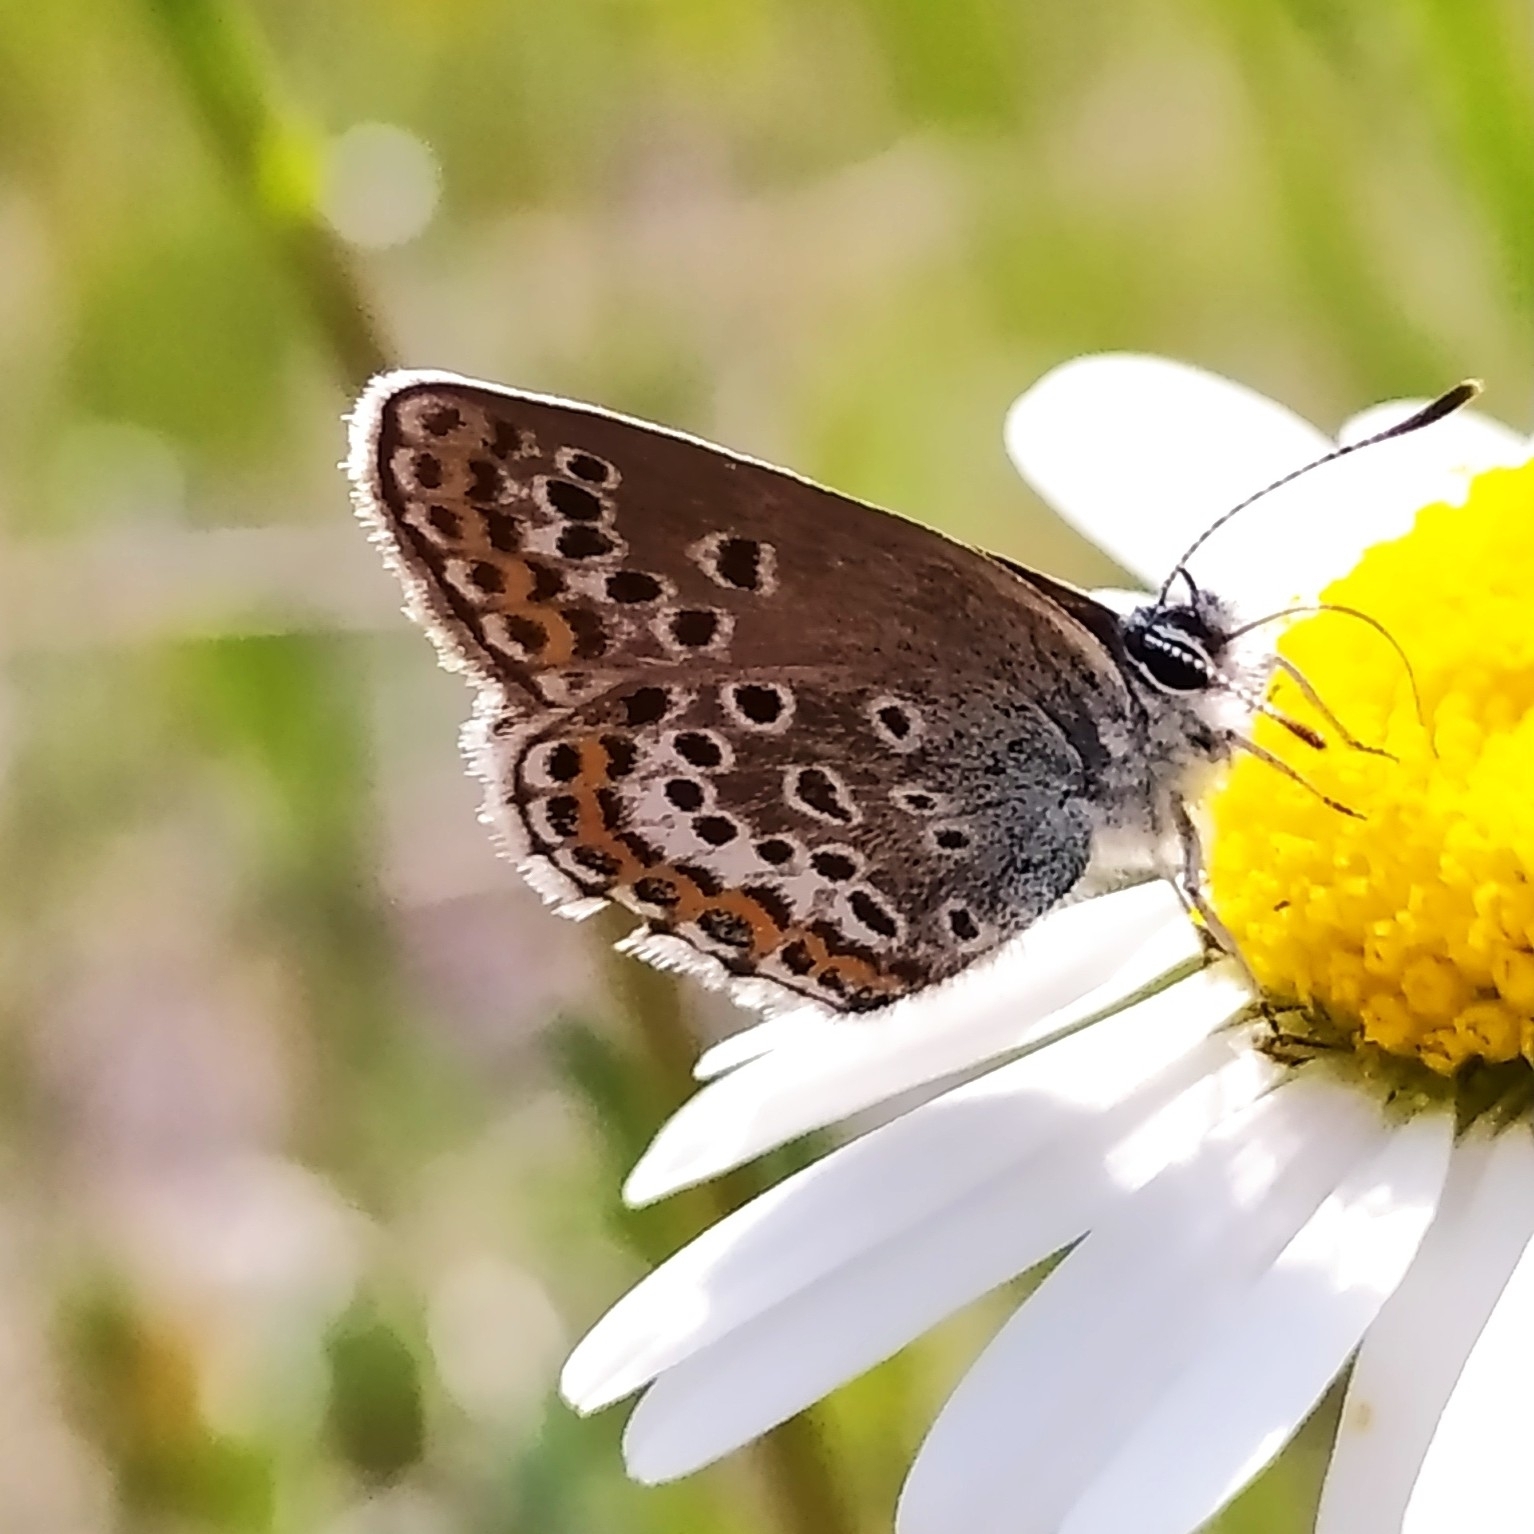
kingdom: Animalia
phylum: Arthropoda
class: Insecta
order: Lepidoptera
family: Lycaenidae
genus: Plebejus
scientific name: Plebejus argus
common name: Silver-studded blue
